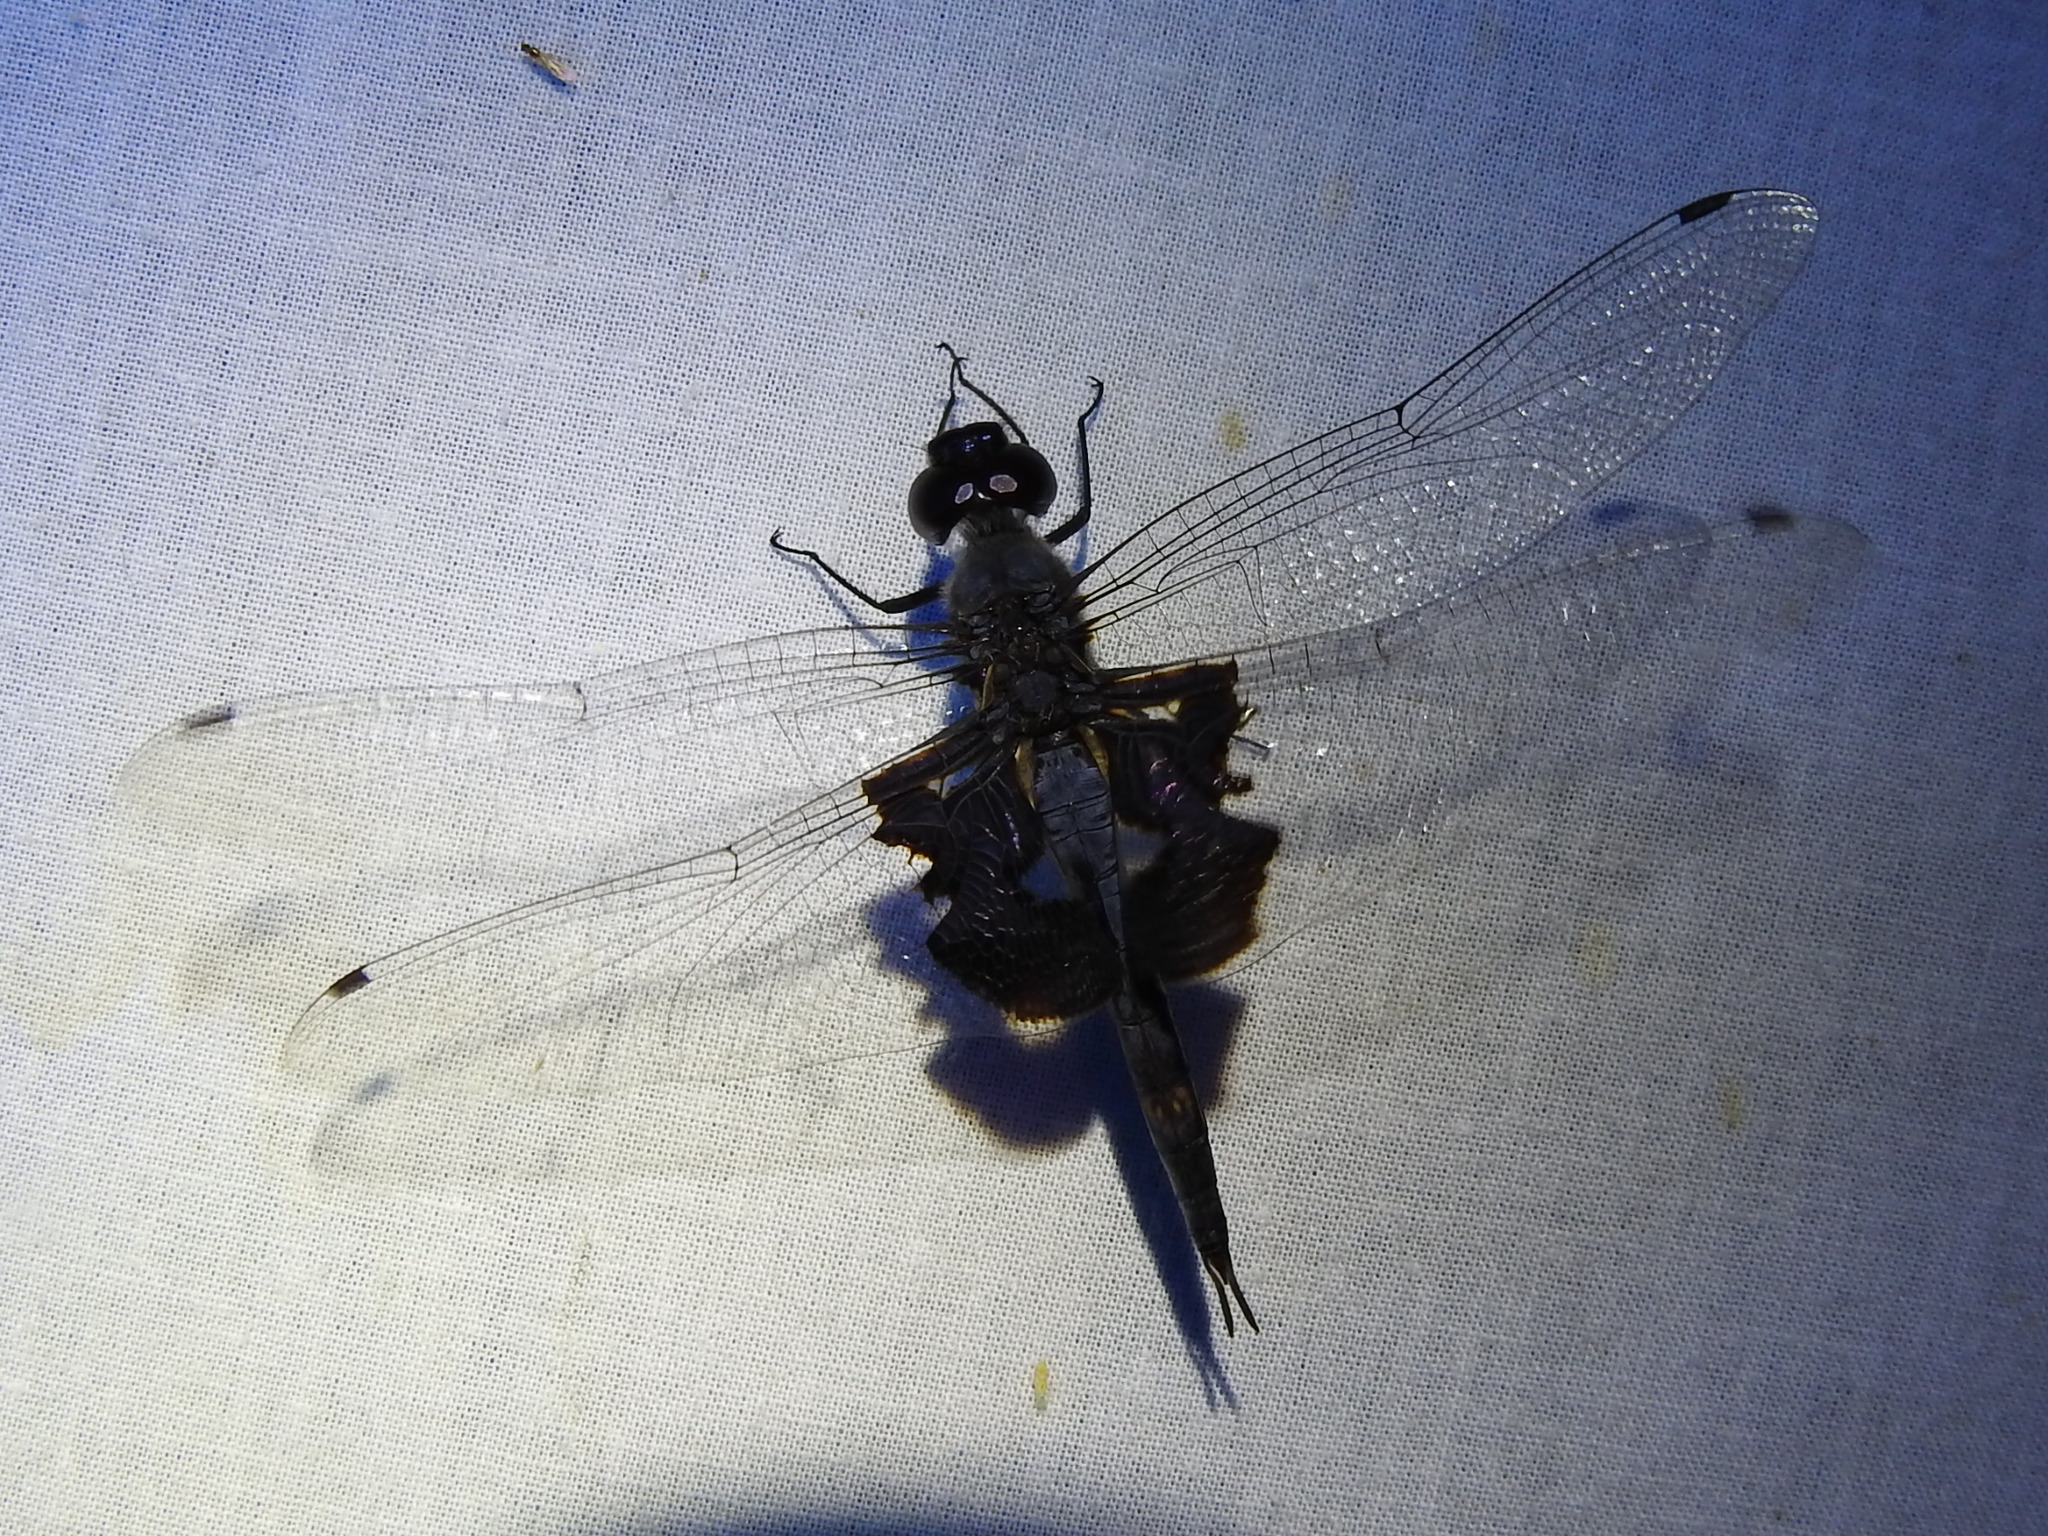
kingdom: Animalia
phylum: Arthropoda
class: Insecta
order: Odonata
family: Libellulidae
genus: Tramea
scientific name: Tramea lacerata
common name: Black saddlebags
